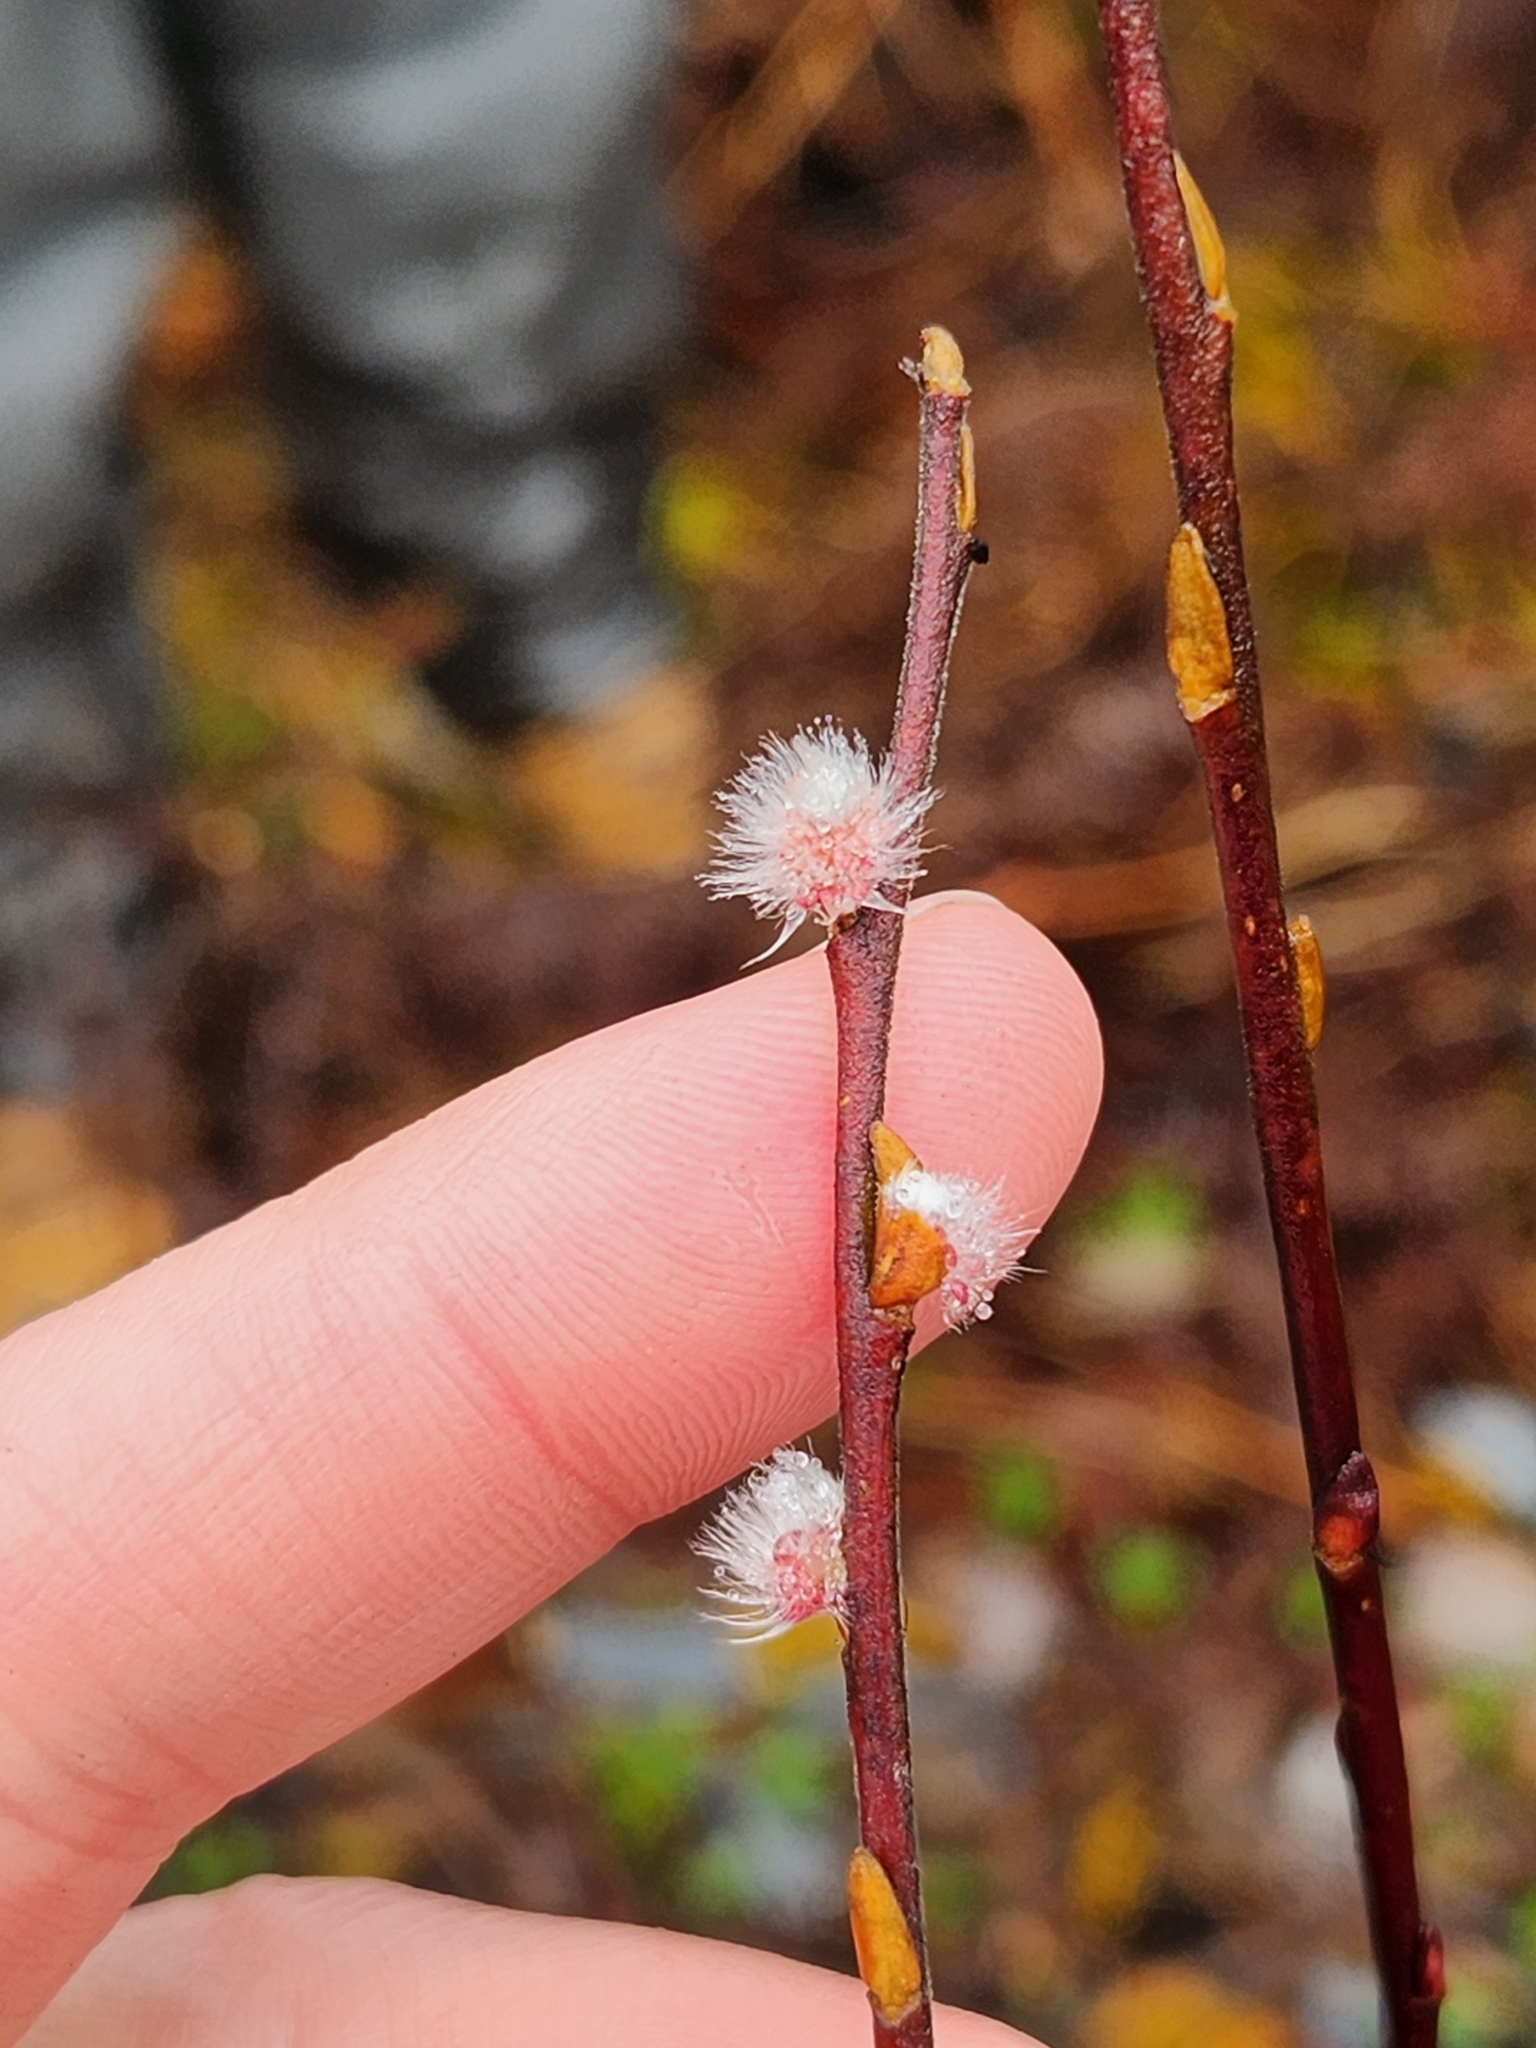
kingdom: Plantae
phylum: Tracheophyta
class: Magnoliopsida
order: Malpighiales
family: Salicaceae
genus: Salix
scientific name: Salix humilis
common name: Prairie willow
